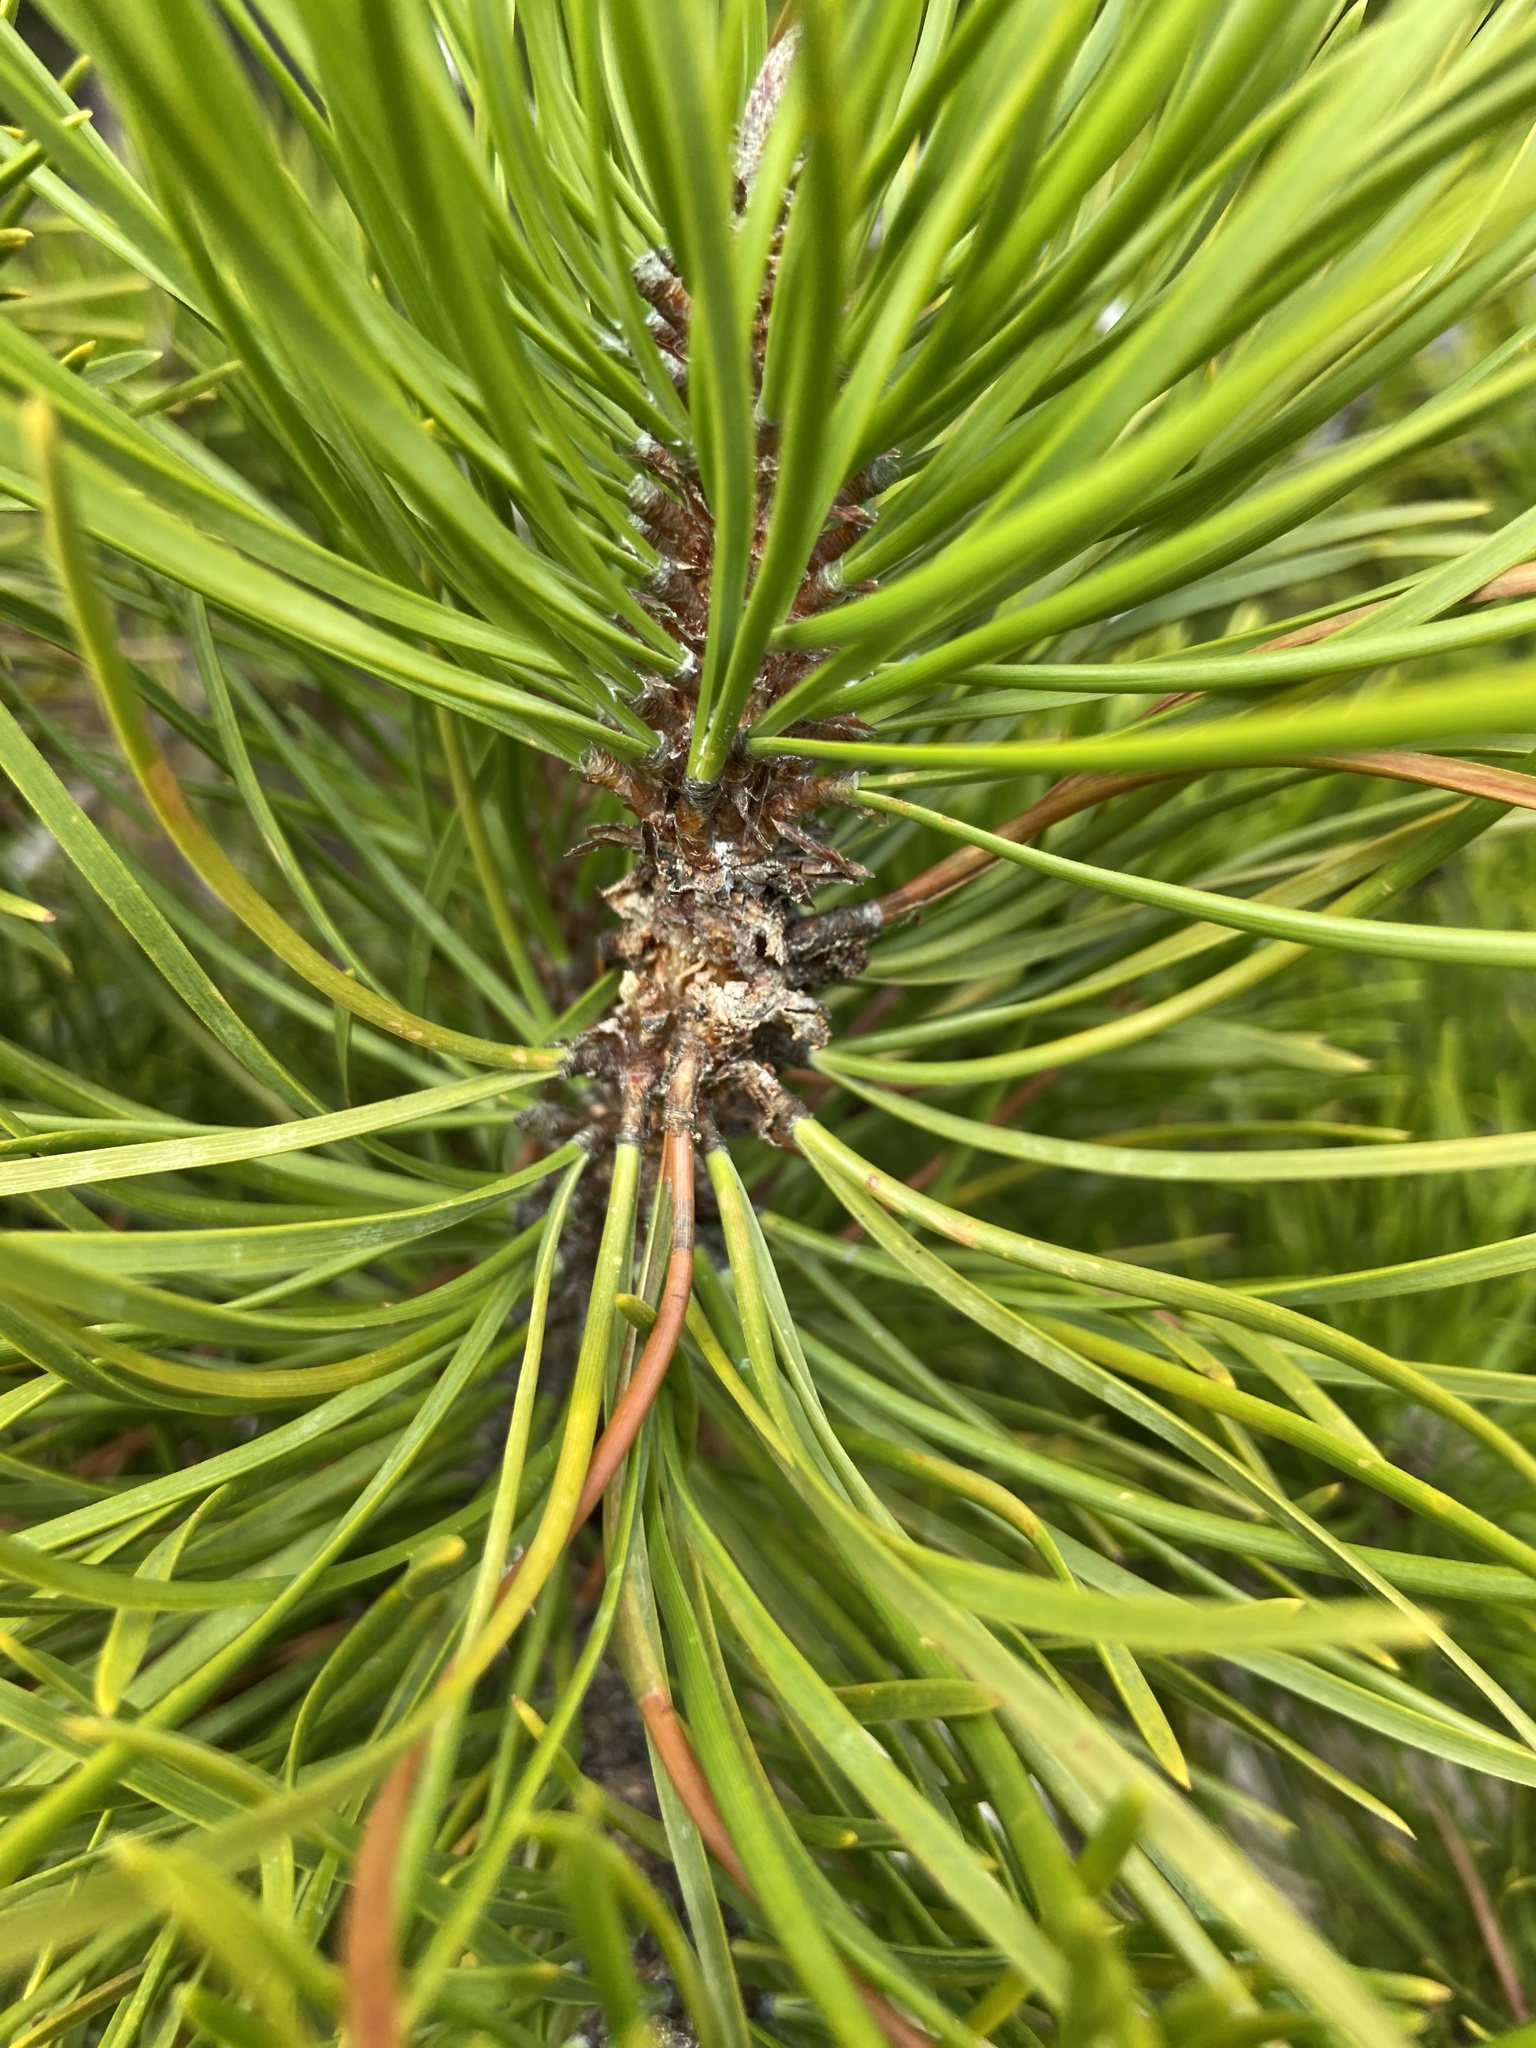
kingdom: Plantae
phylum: Tracheophyta
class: Pinopsida
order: Pinales
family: Pinaceae
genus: Pinus
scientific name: Pinus contorta
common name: Lodgepole pine
